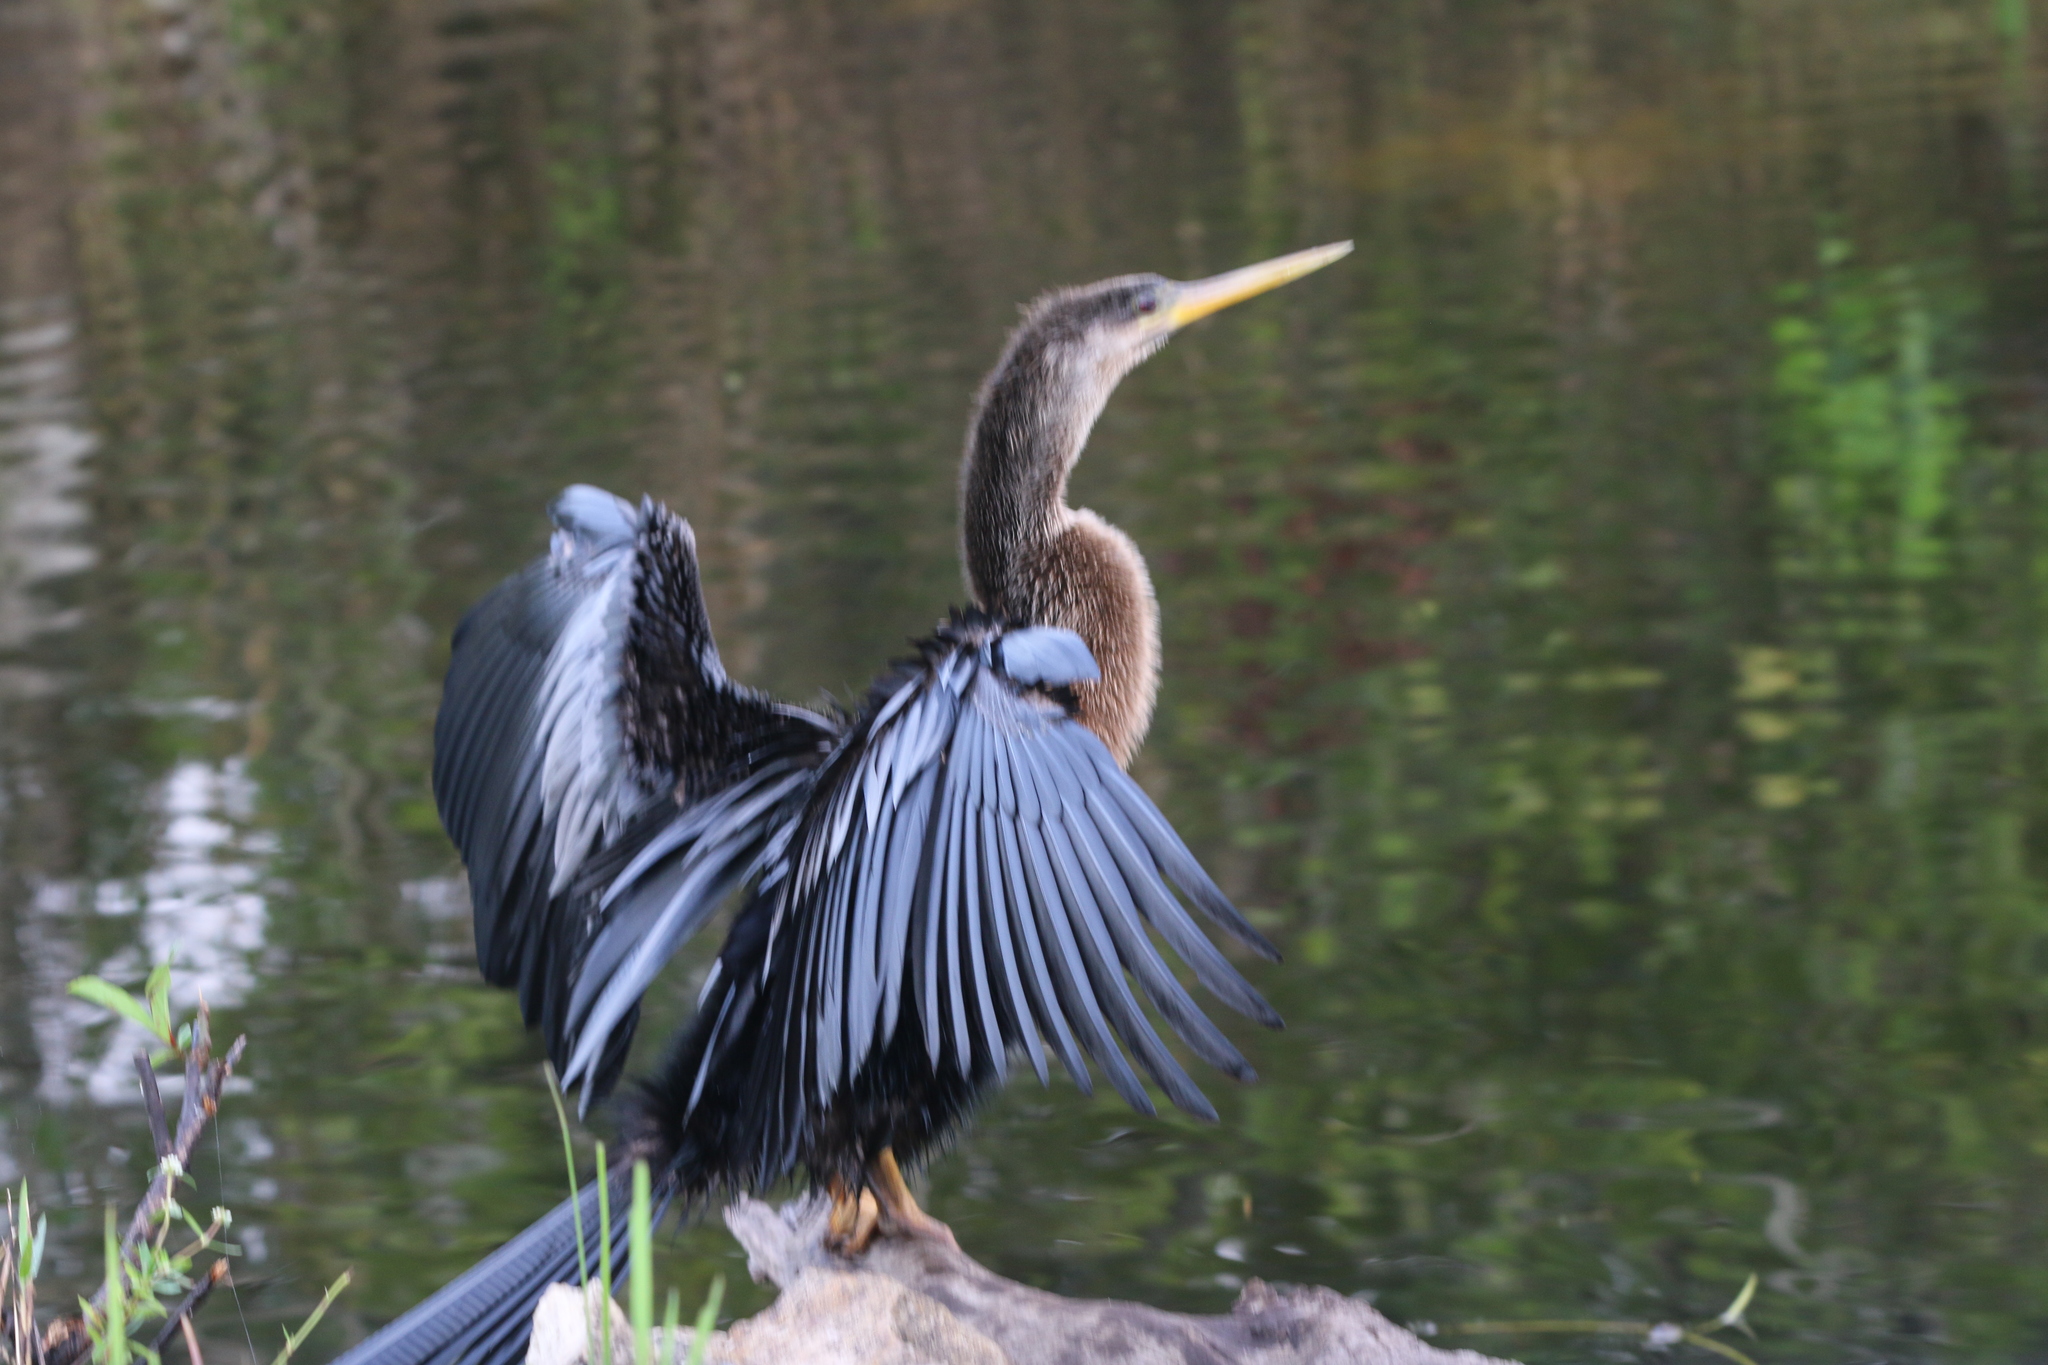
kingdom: Animalia
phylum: Chordata
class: Aves
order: Suliformes
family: Anhingidae
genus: Anhinga
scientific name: Anhinga anhinga
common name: Anhinga
